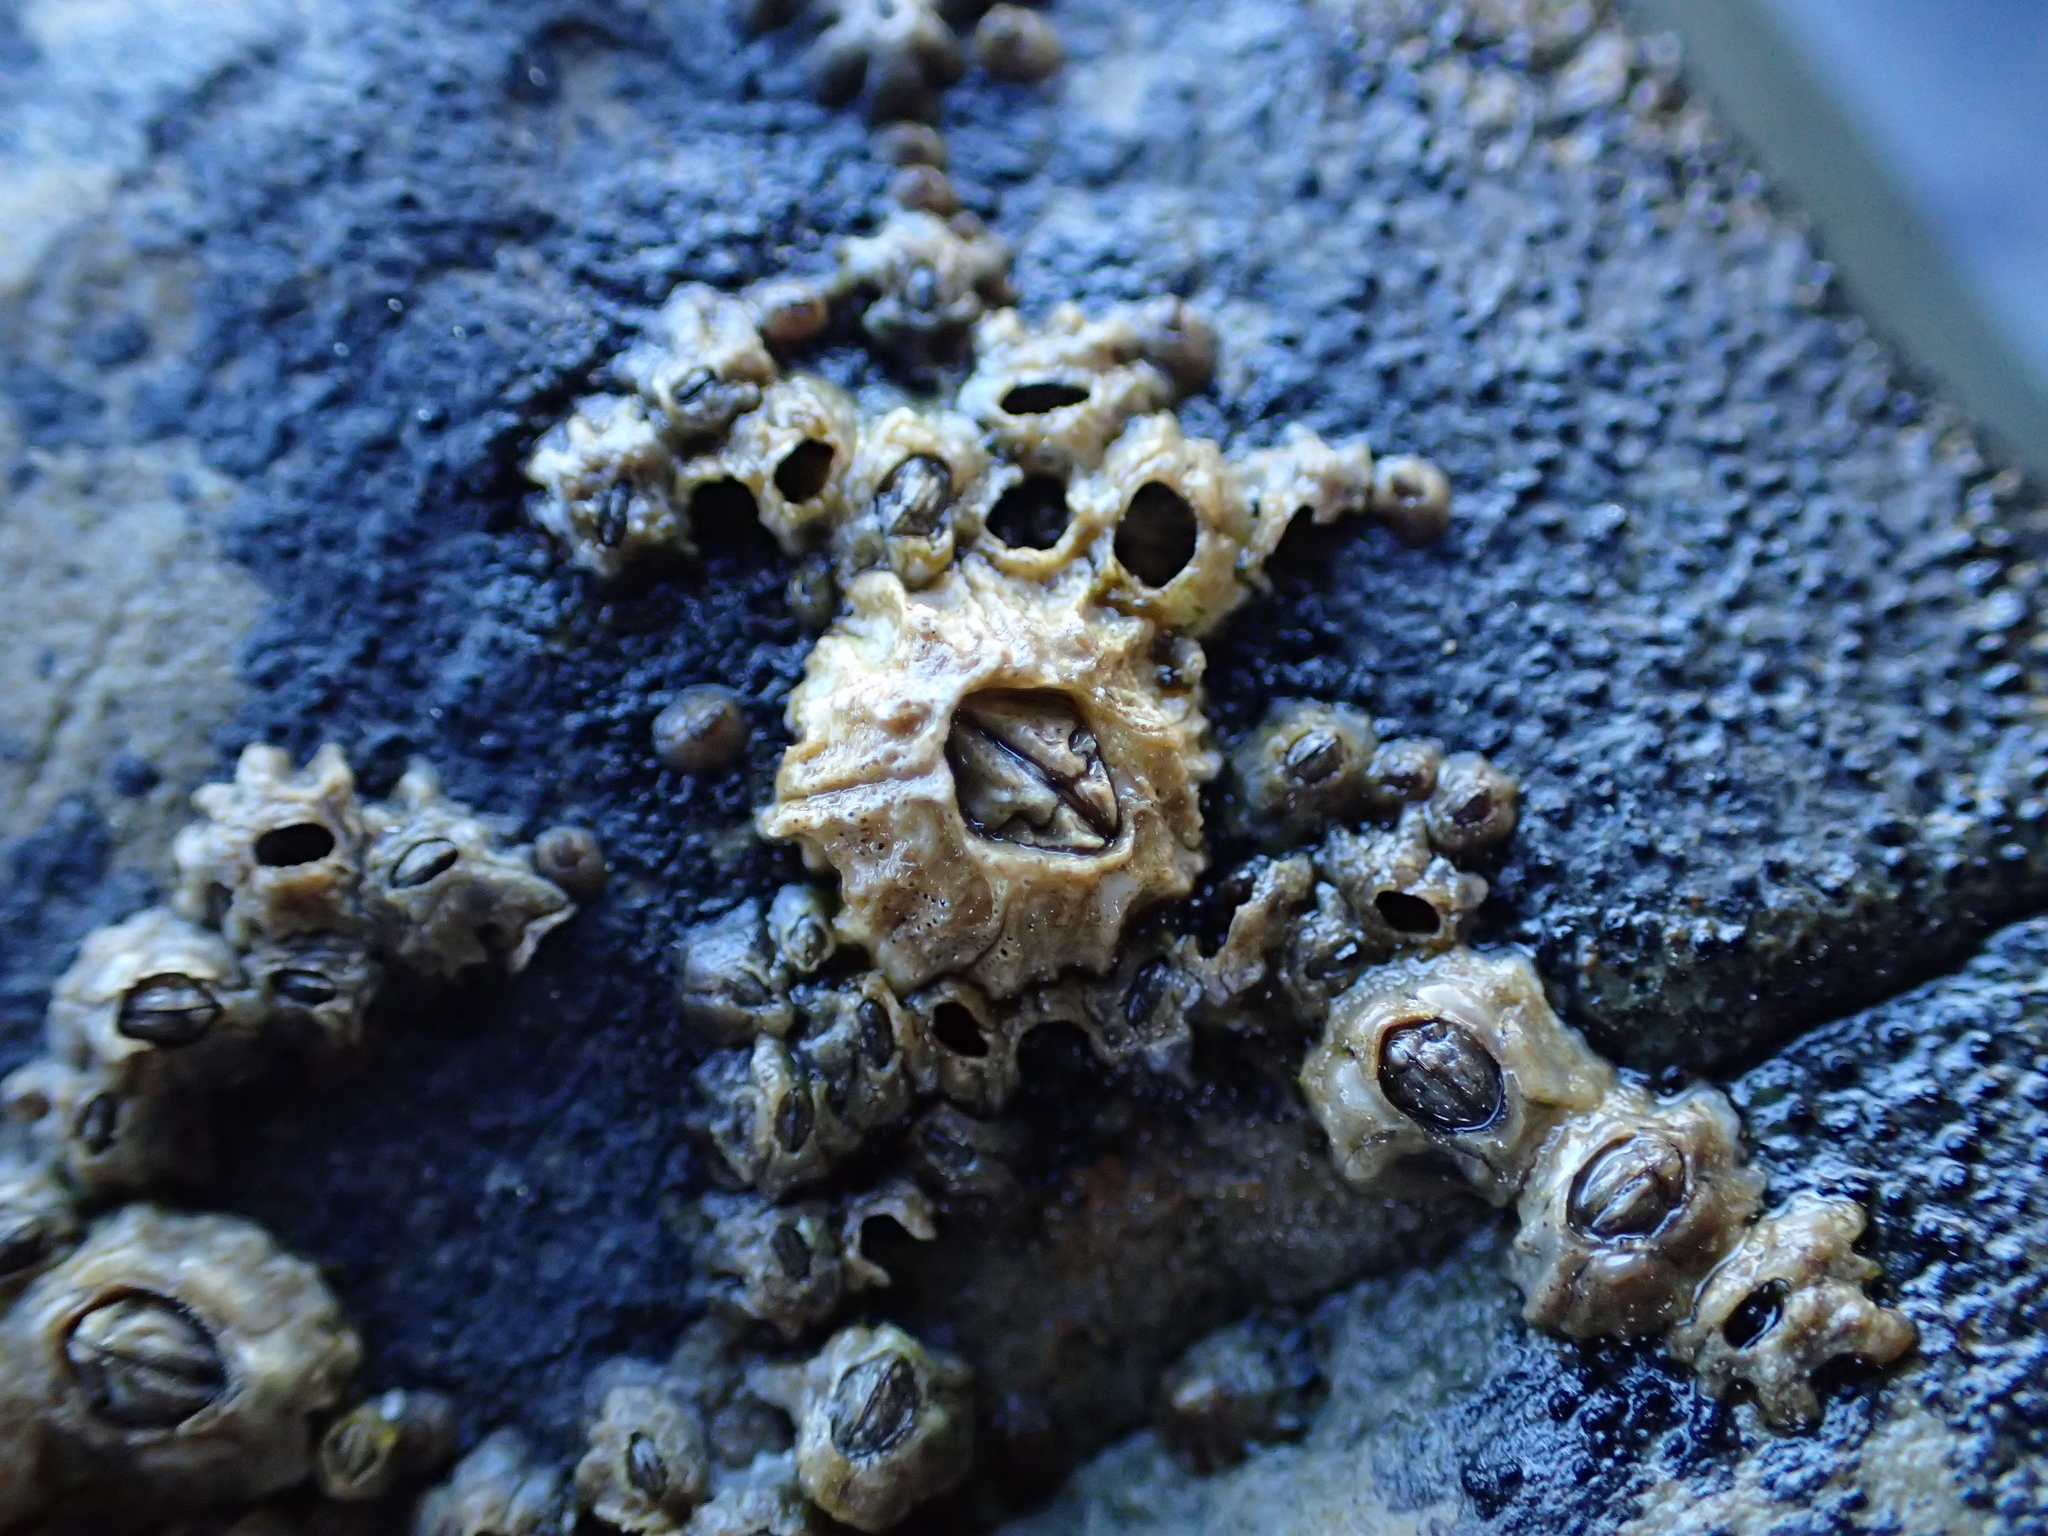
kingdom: Animalia
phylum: Arthropoda
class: Maxillopoda
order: Sessilia
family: Balanidae
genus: Balanus
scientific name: Balanus glandula
